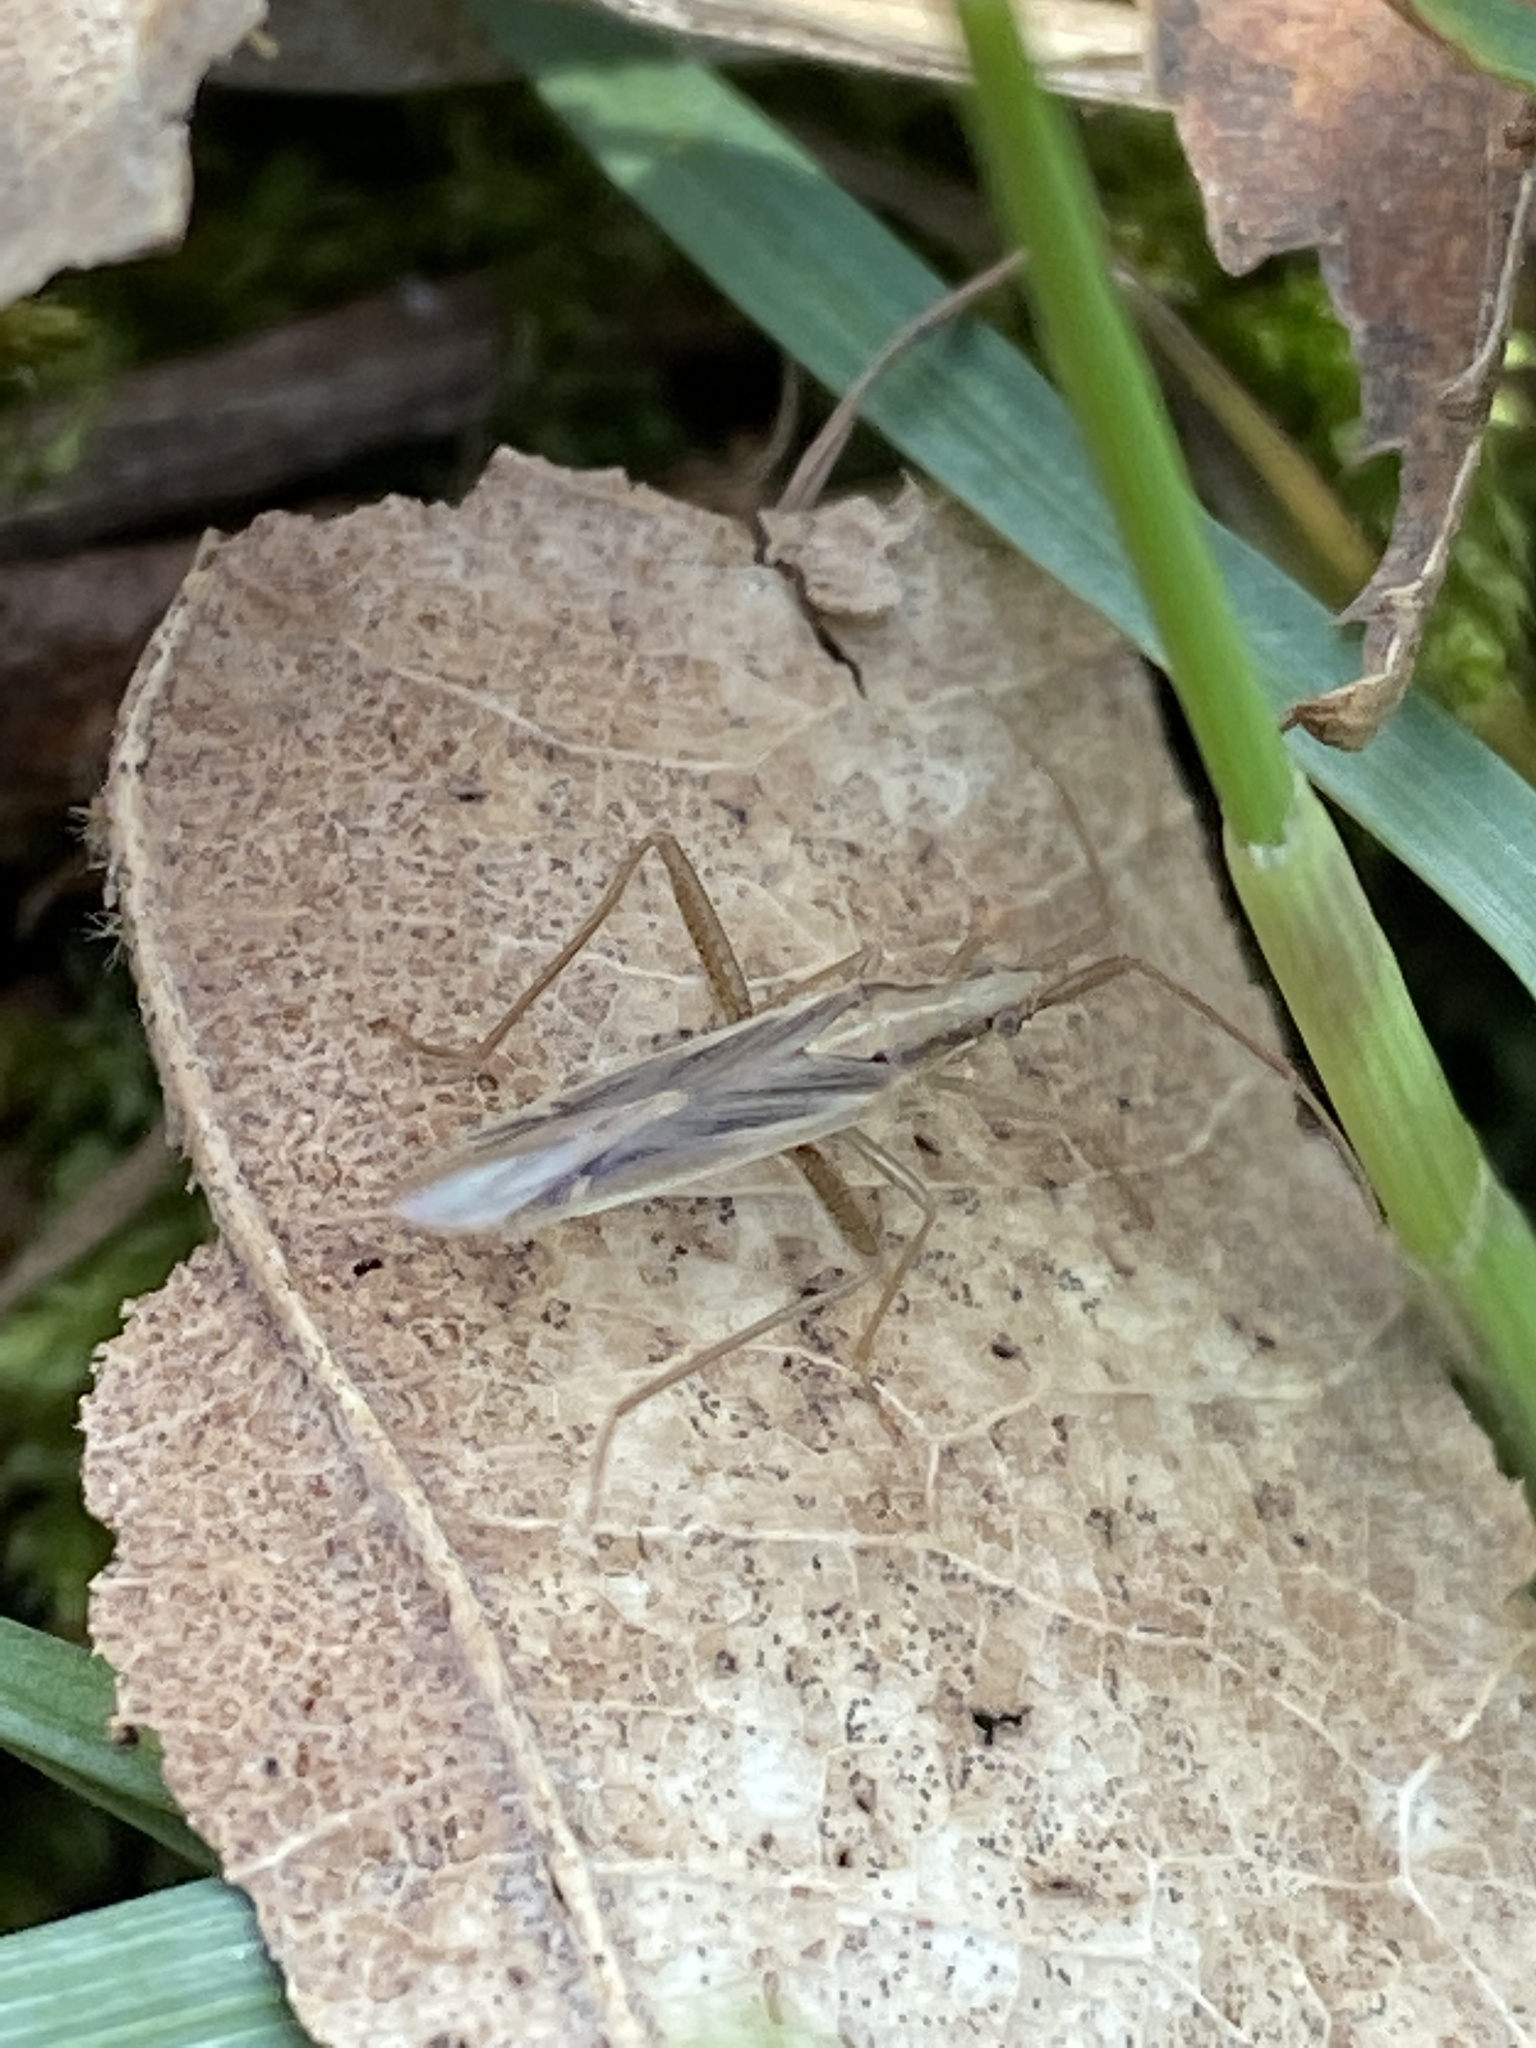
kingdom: Animalia
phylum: Arthropoda
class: Insecta
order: Hemiptera
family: Miridae
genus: Stenodema
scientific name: Stenodema laevigata
